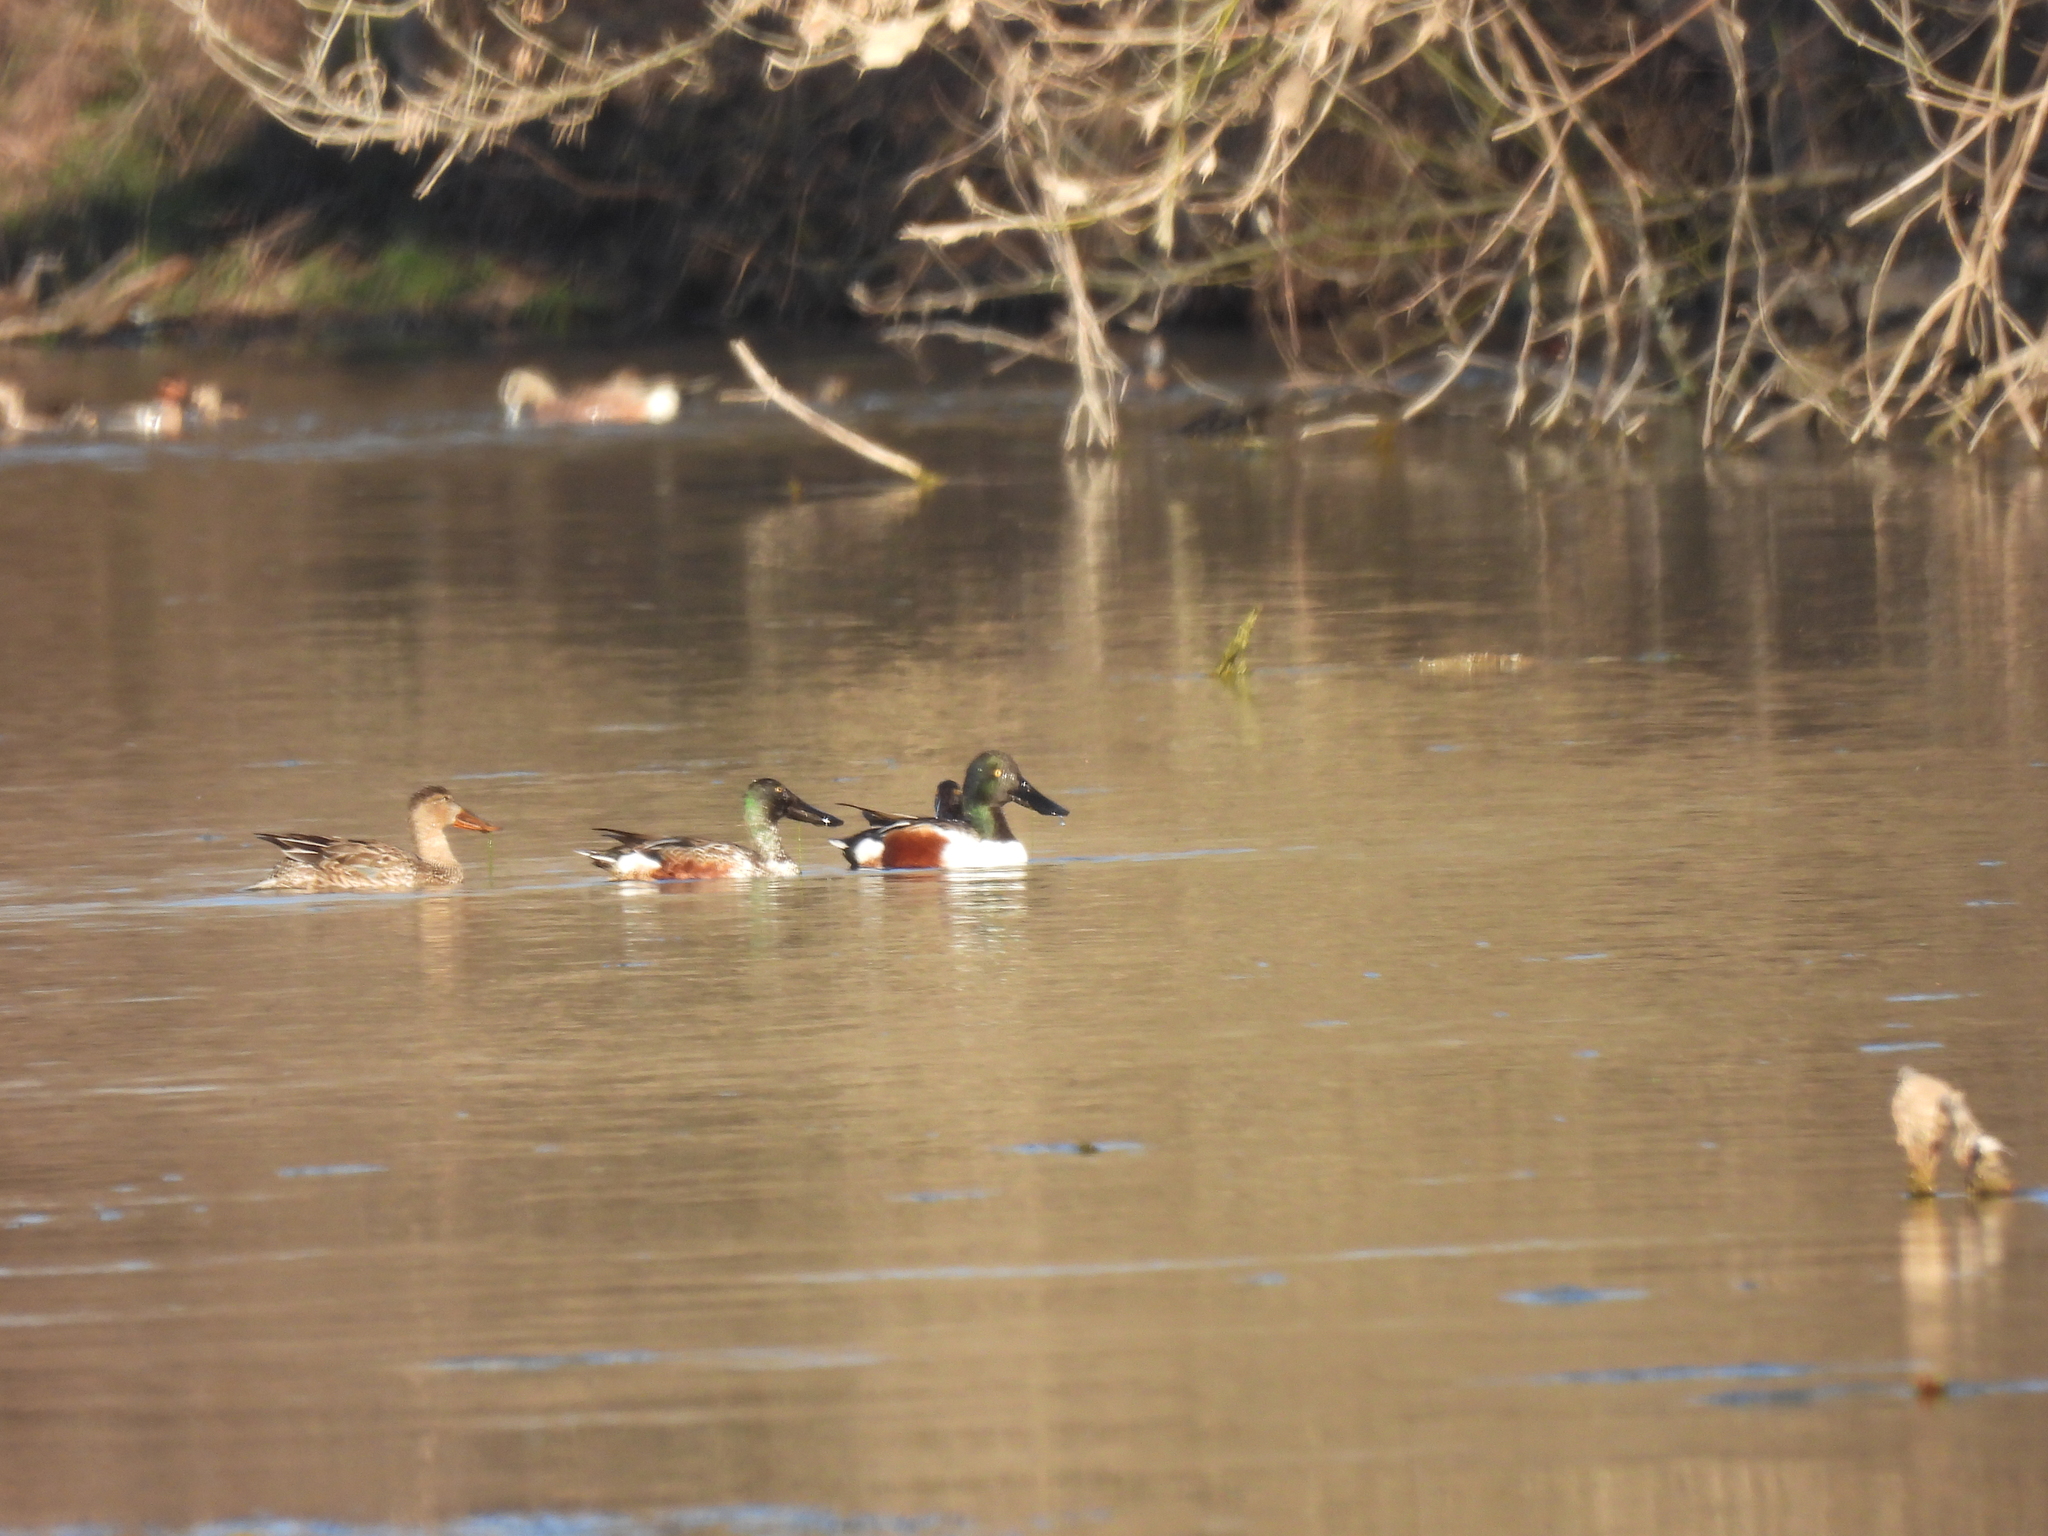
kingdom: Animalia
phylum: Chordata
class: Aves
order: Anseriformes
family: Anatidae
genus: Spatula
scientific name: Spatula clypeata
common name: Northern shoveler
